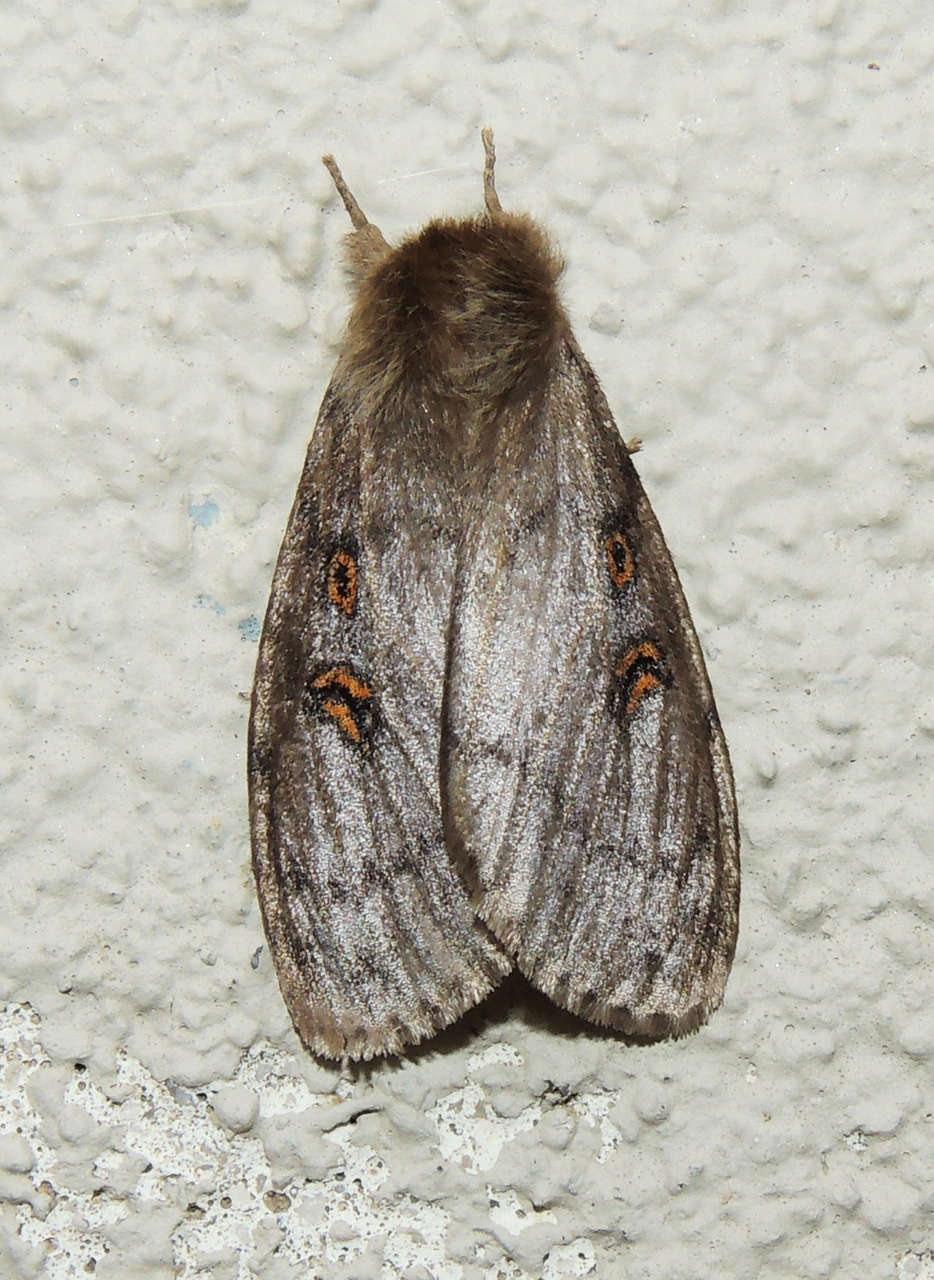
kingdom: Animalia
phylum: Arthropoda
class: Insecta
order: Lepidoptera
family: Erebidae
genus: Leptocneria
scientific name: Leptocneria reducta
